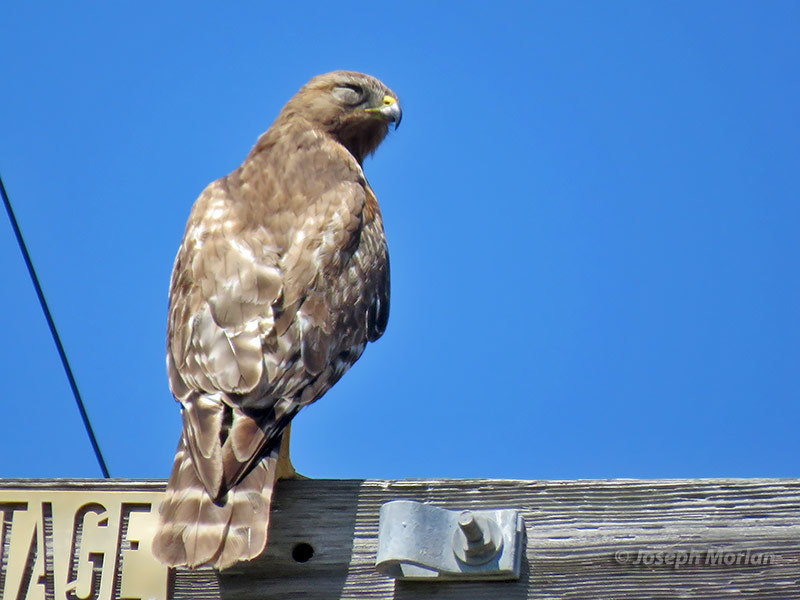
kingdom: Animalia
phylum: Chordata
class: Aves
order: Accipitriformes
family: Accipitridae
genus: Buteo
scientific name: Buteo lineatus
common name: Red-shouldered hawk
